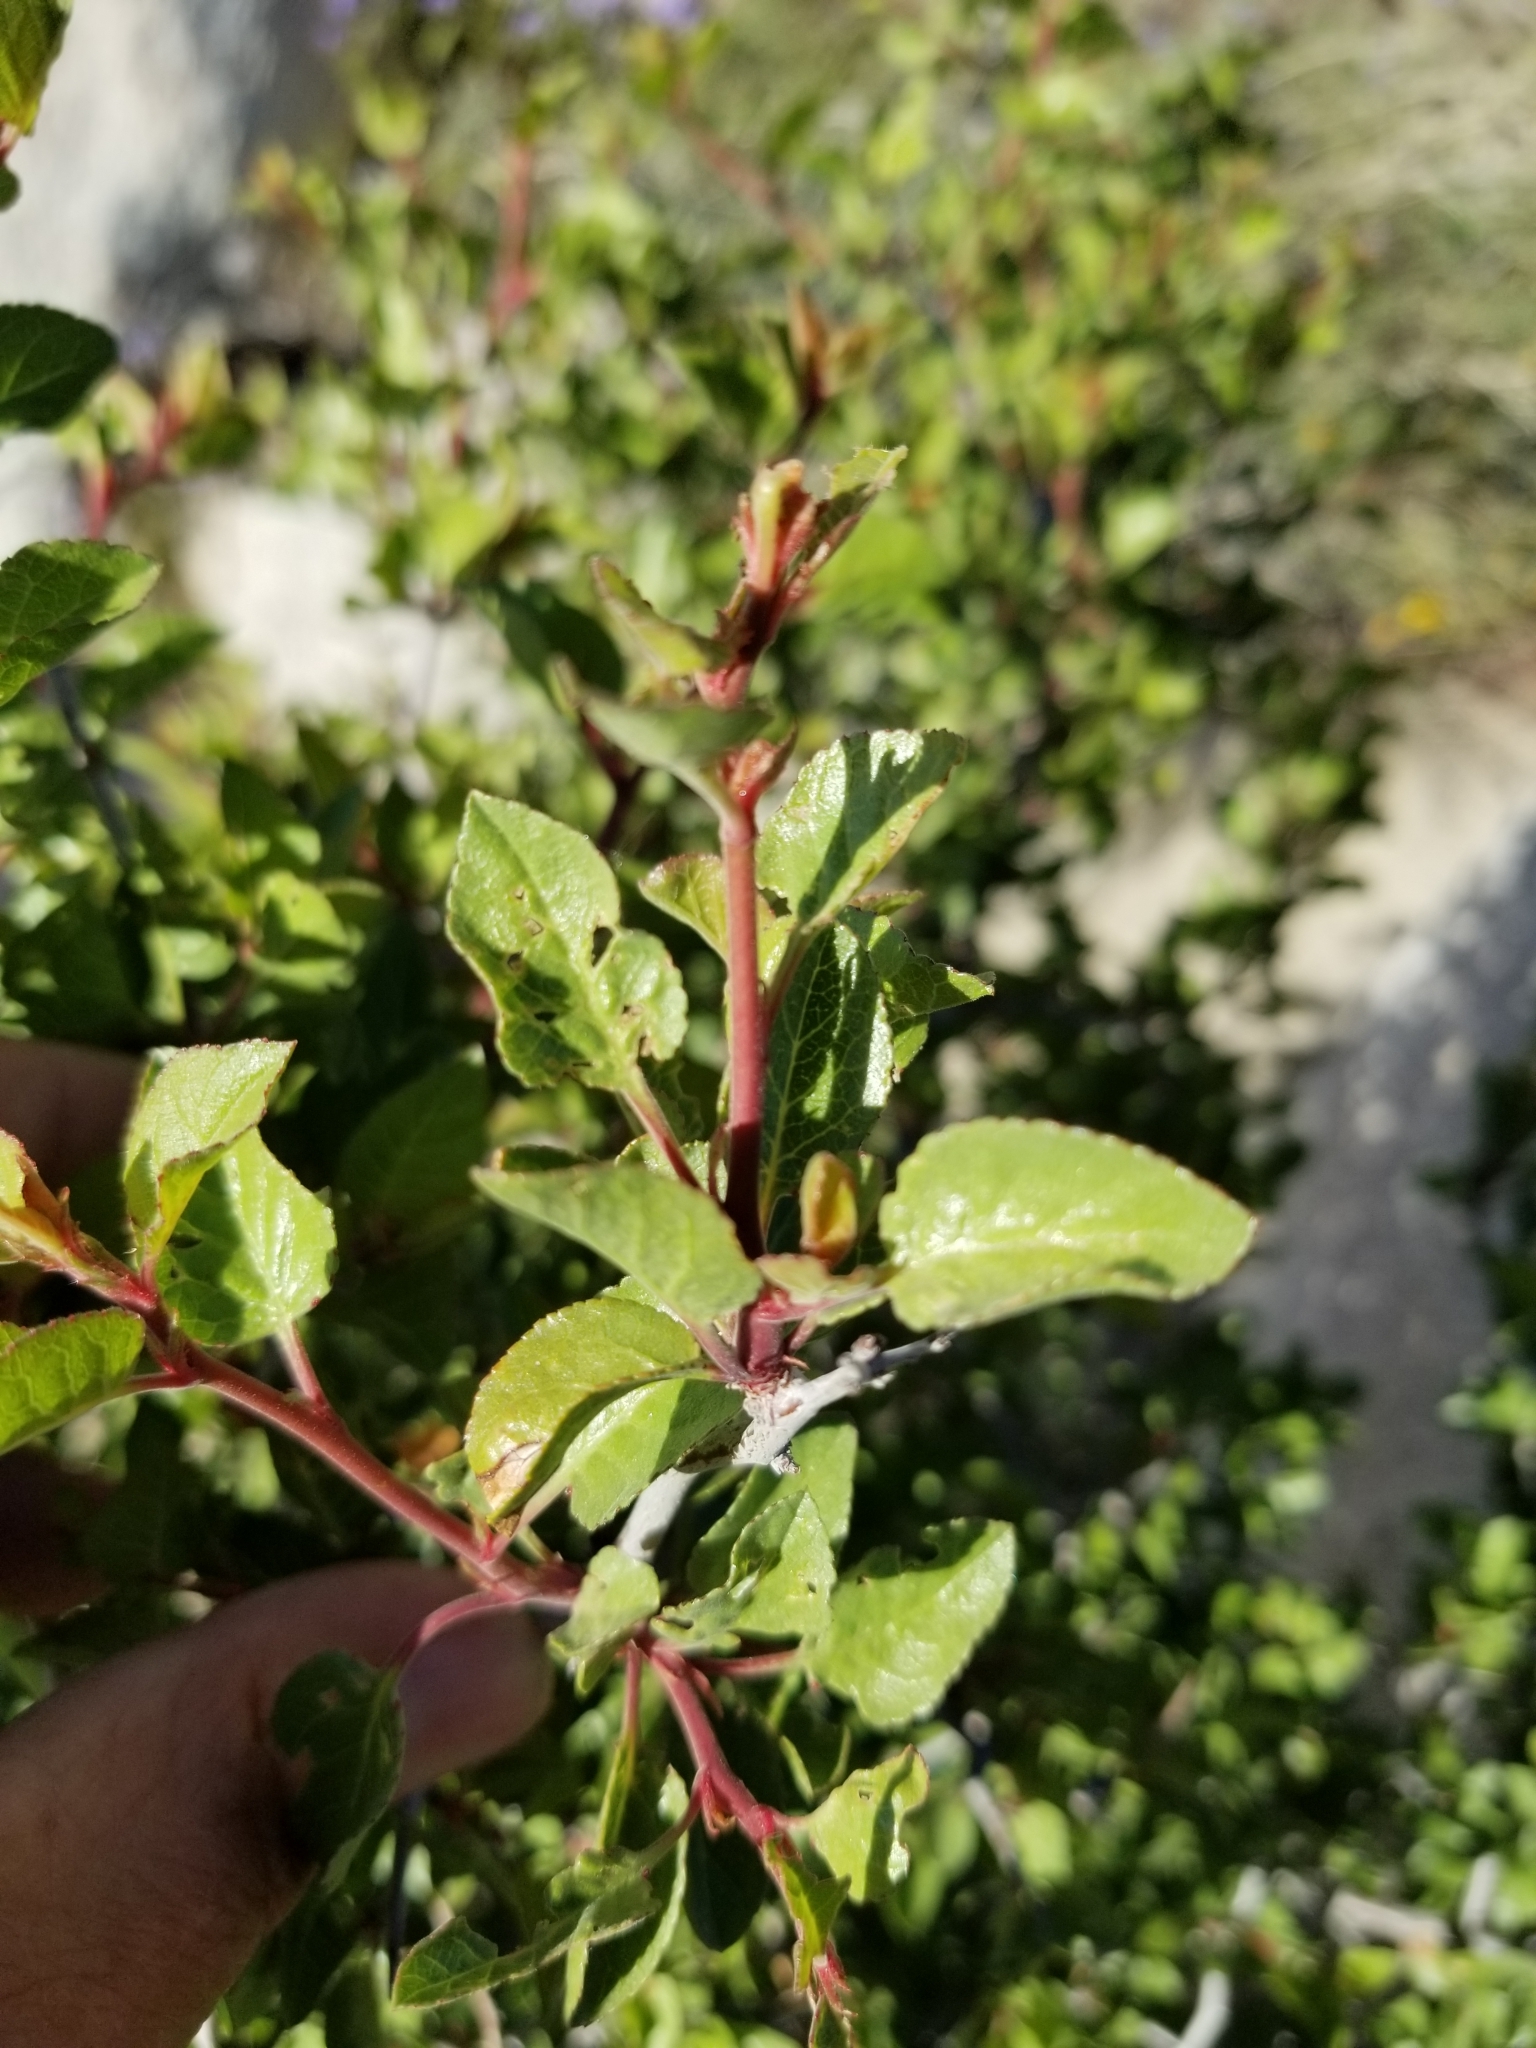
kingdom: Plantae
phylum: Tracheophyta
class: Magnoliopsida
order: Rosales
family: Rosaceae
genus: Prunus
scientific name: Prunus fremontii
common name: Desert apricot
